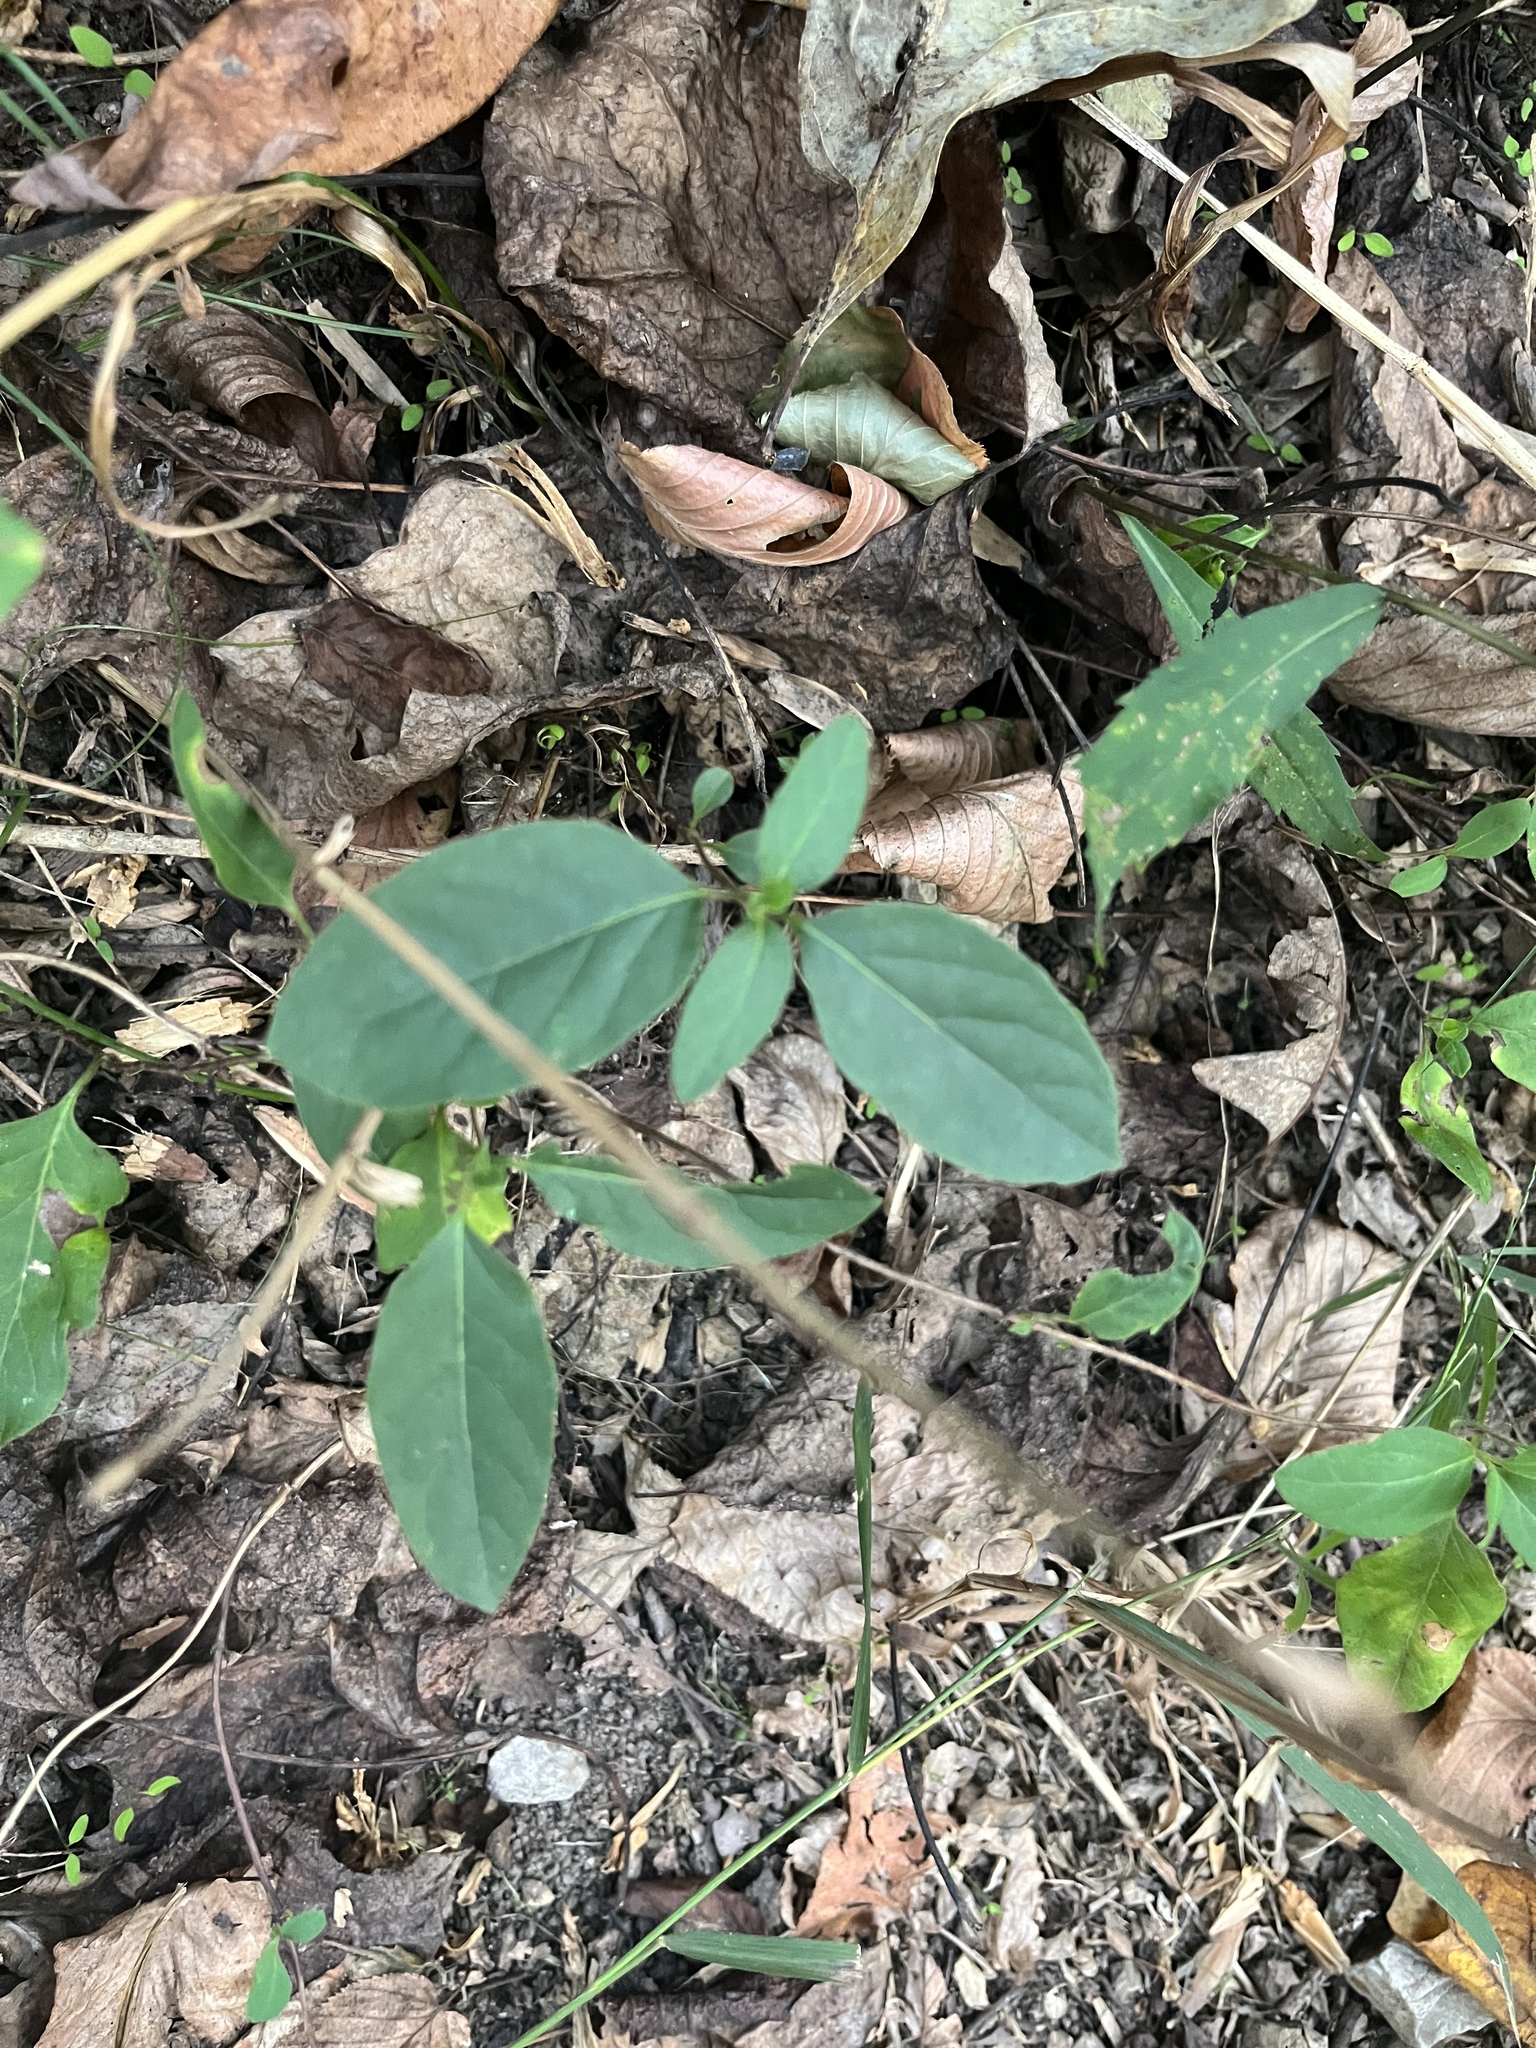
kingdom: Plantae
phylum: Tracheophyta
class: Magnoliopsida
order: Dipsacales
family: Caprifoliaceae
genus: Lonicera
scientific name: Lonicera japonica
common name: Japanese honeysuckle
